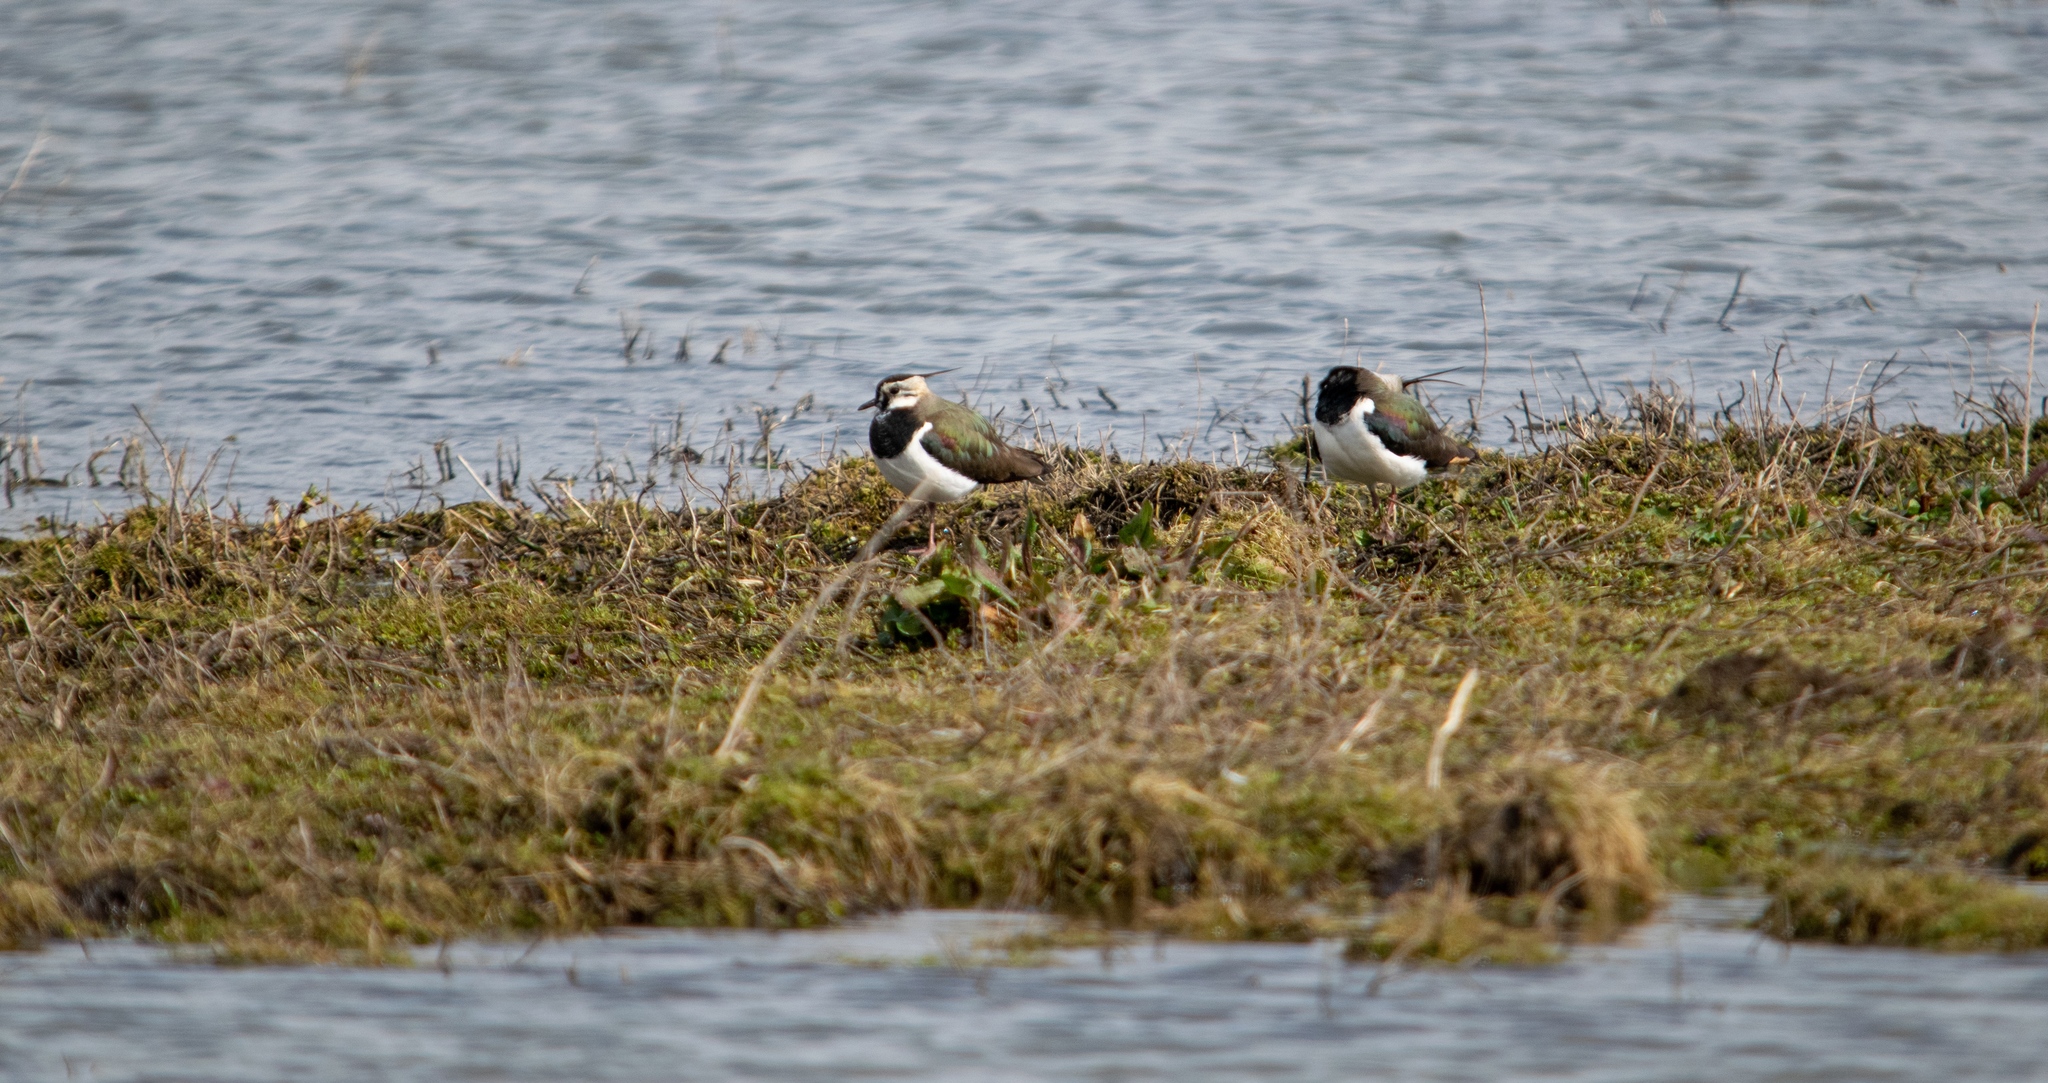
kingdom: Animalia
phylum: Chordata
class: Aves
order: Charadriiformes
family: Charadriidae
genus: Vanellus
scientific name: Vanellus vanellus
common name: Northern lapwing
